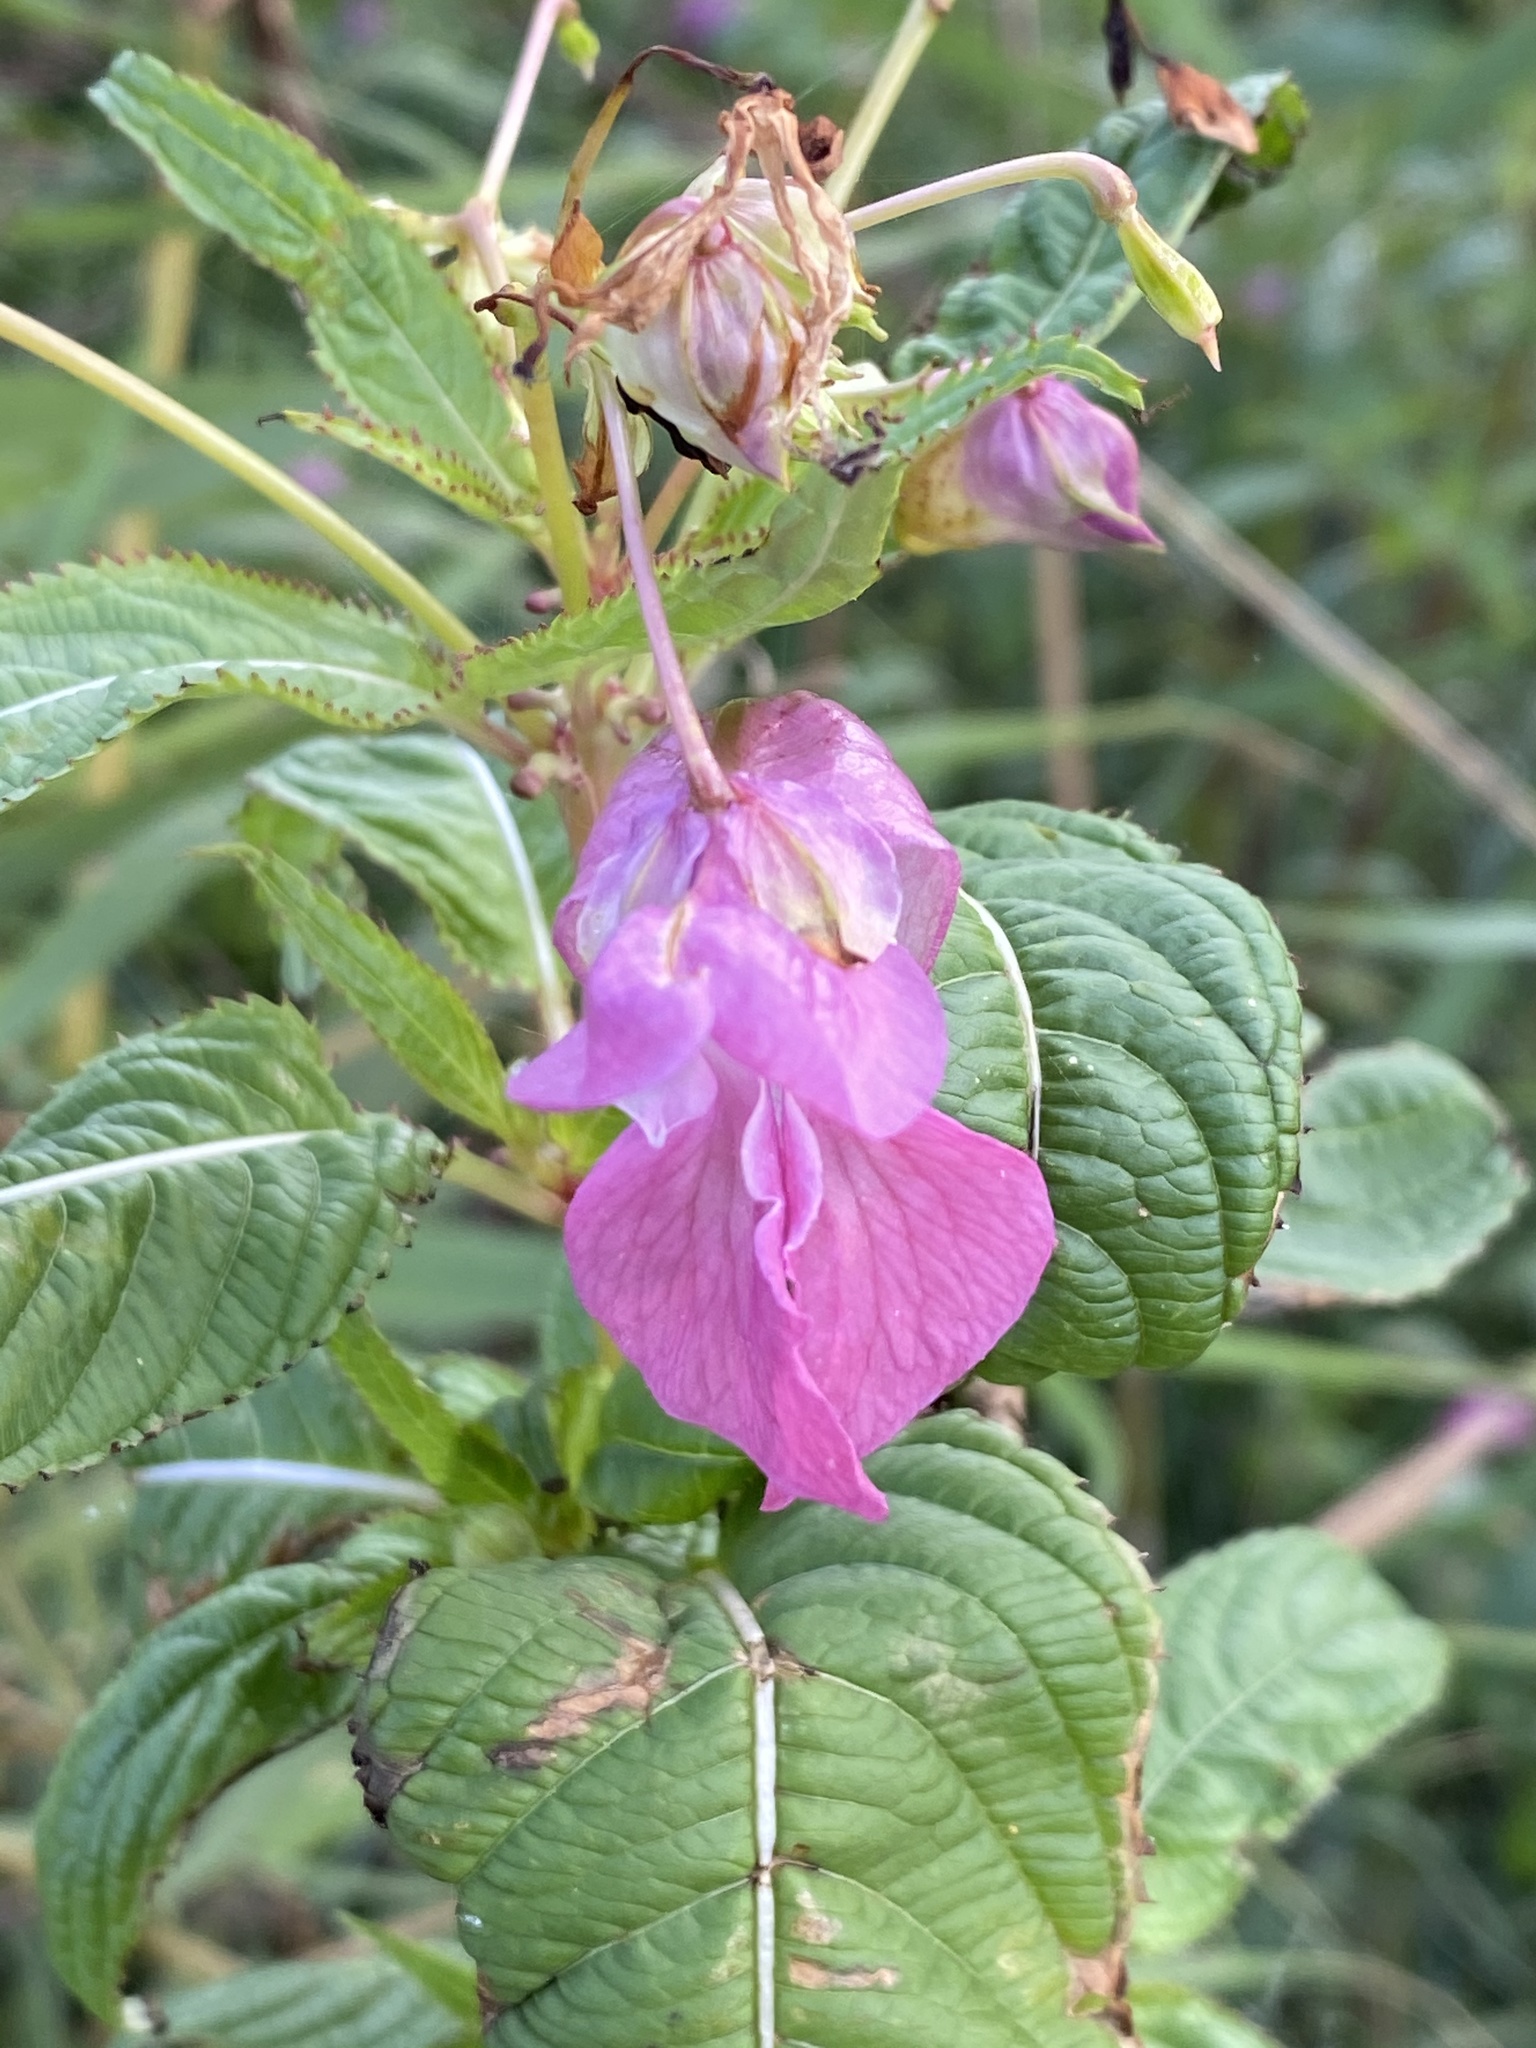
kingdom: Plantae
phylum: Tracheophyta
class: Magnoliopsida
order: Ericales
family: Balsaminaceae
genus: Impatiens
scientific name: Impatiens glandulifera
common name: Himalayan balsam
